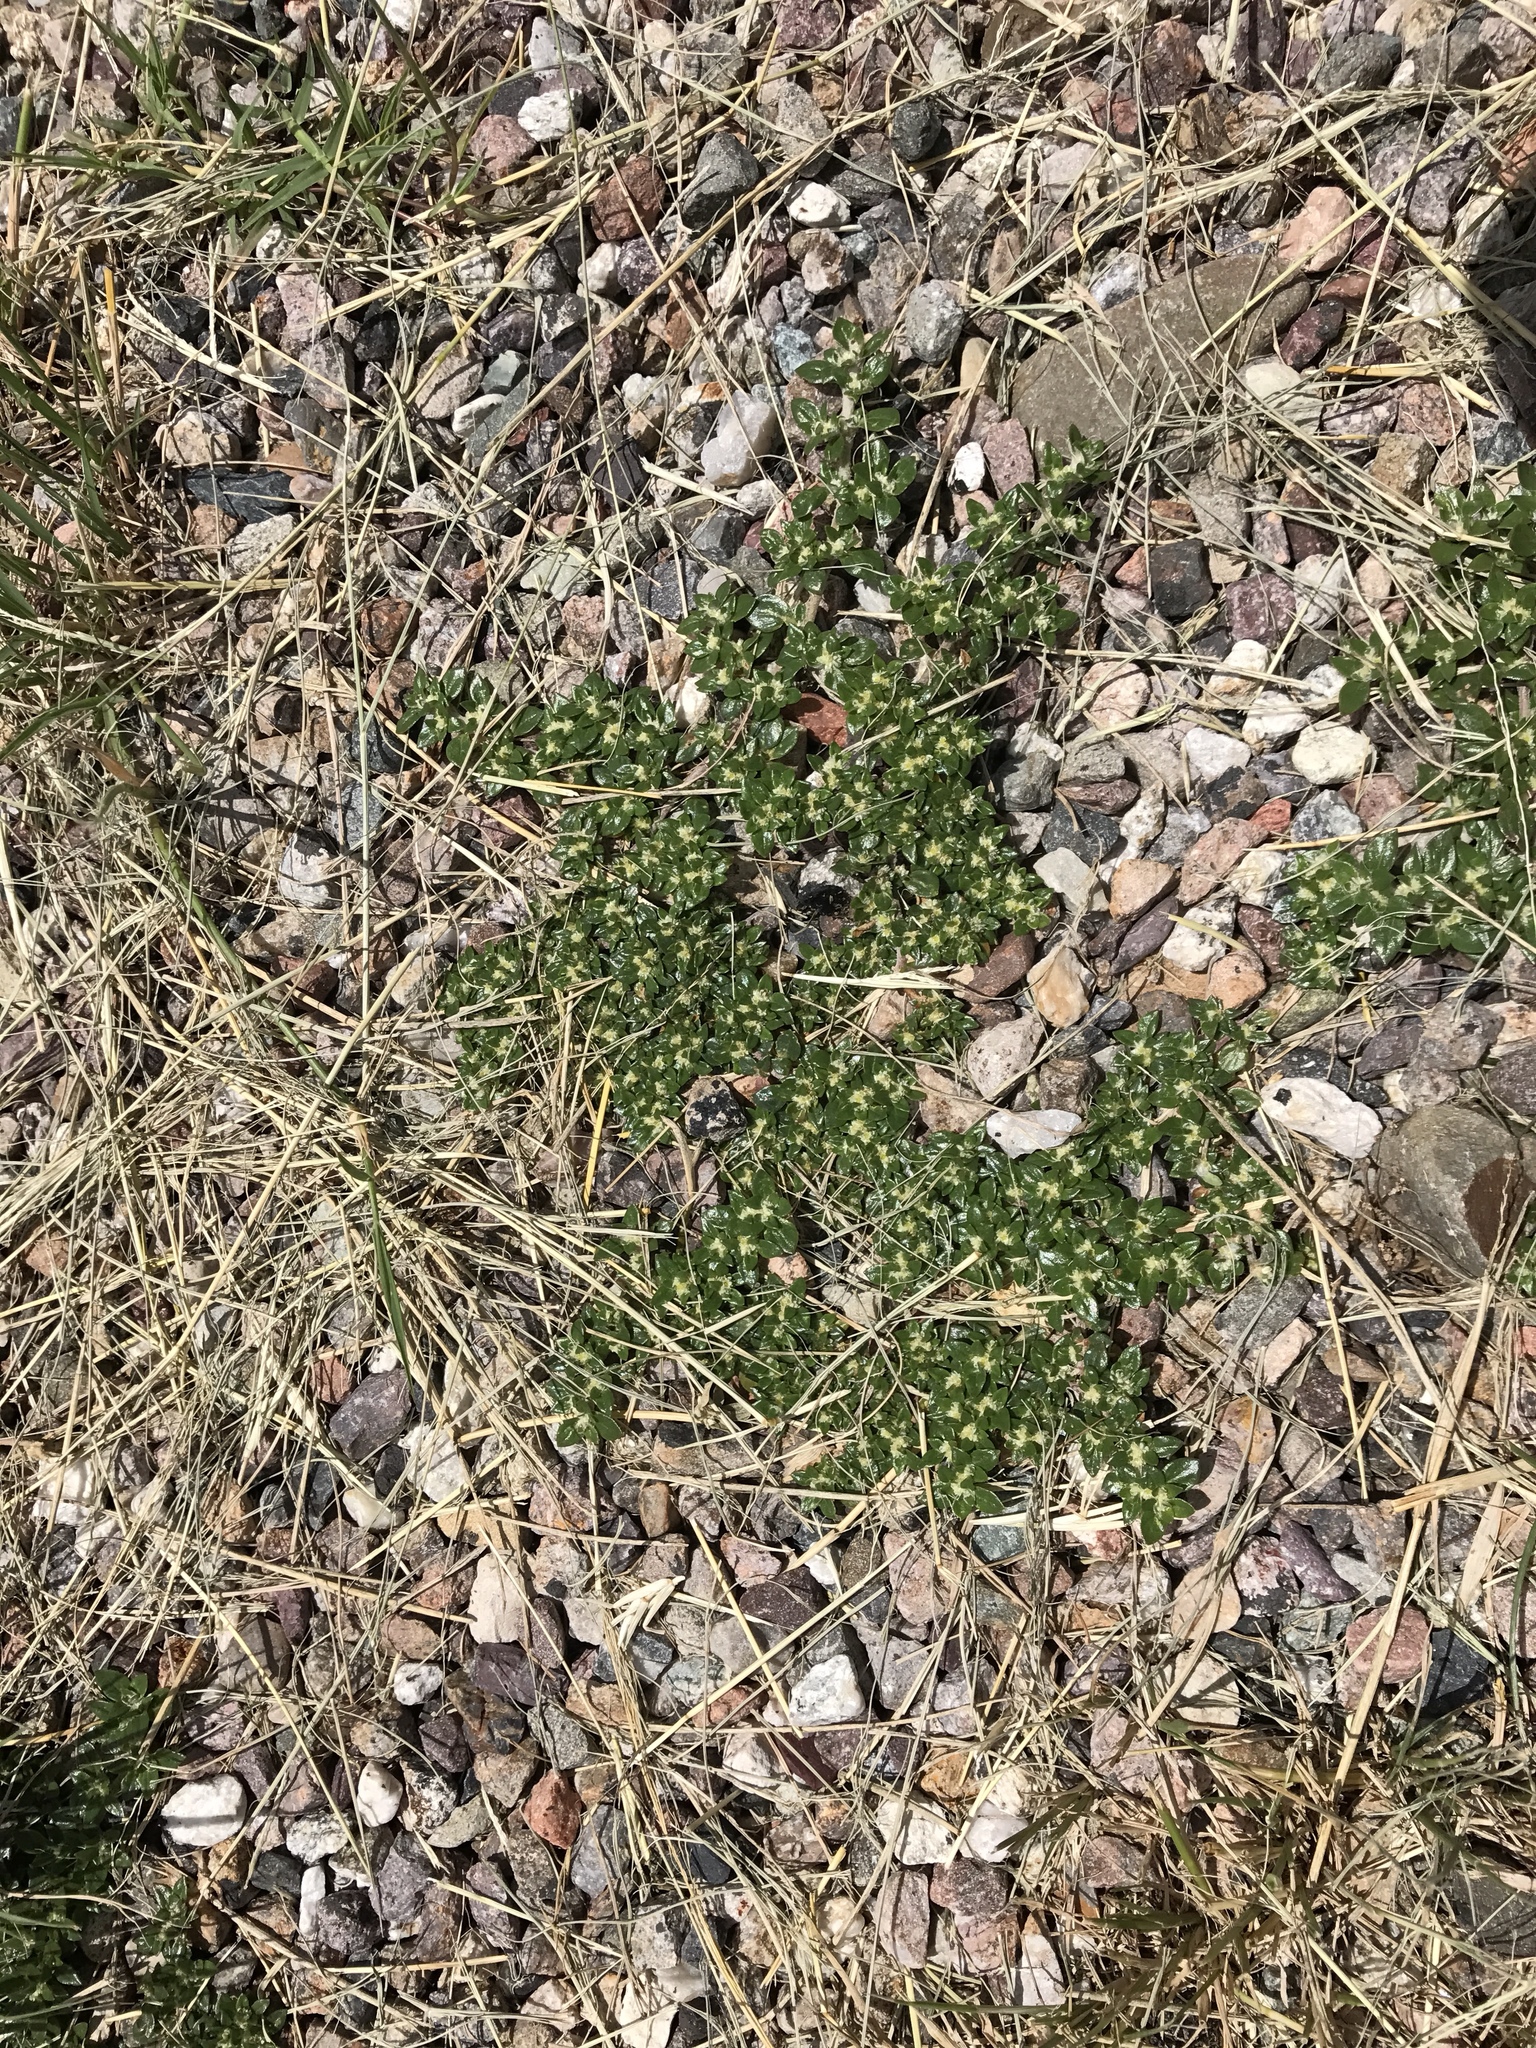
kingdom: Plantae
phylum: Tracheophyta
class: Magnoliopsida
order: Caryophyllales
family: Amaranthaceae
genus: Guilleminea
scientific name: Guilleminea densa
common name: Small matweed
